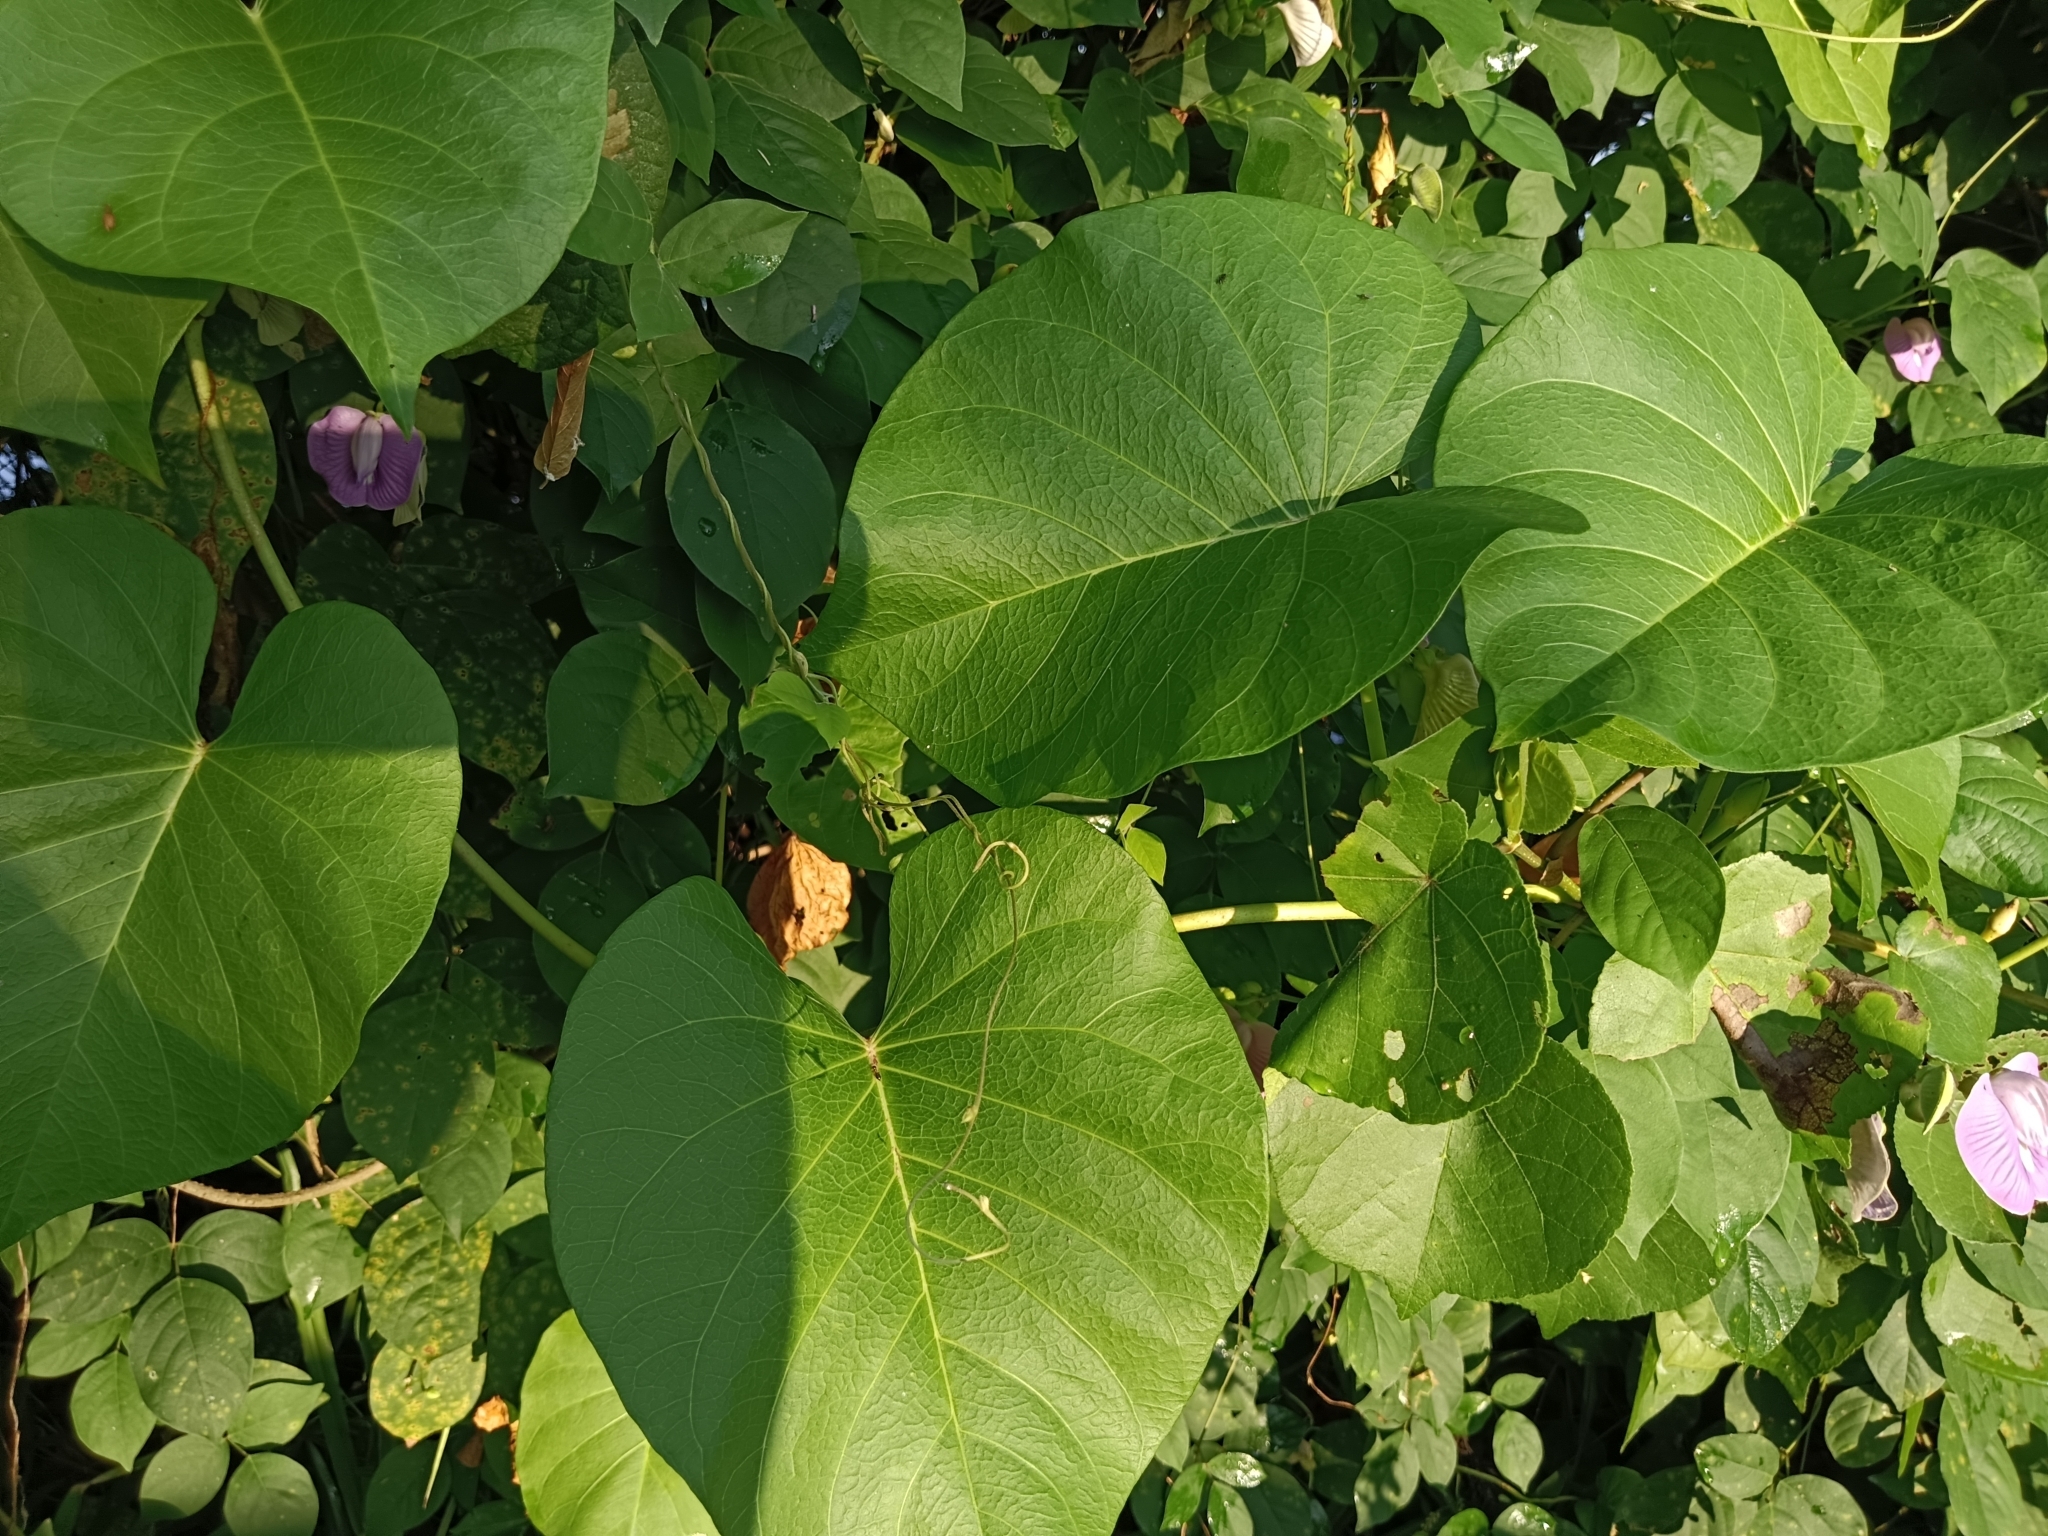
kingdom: Plantae
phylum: Tracheophyta
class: Magnoliopsida
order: Solanales
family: Convolvulaceae
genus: Ipomoea
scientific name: Ipomoea violacea
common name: Beach moonflower
